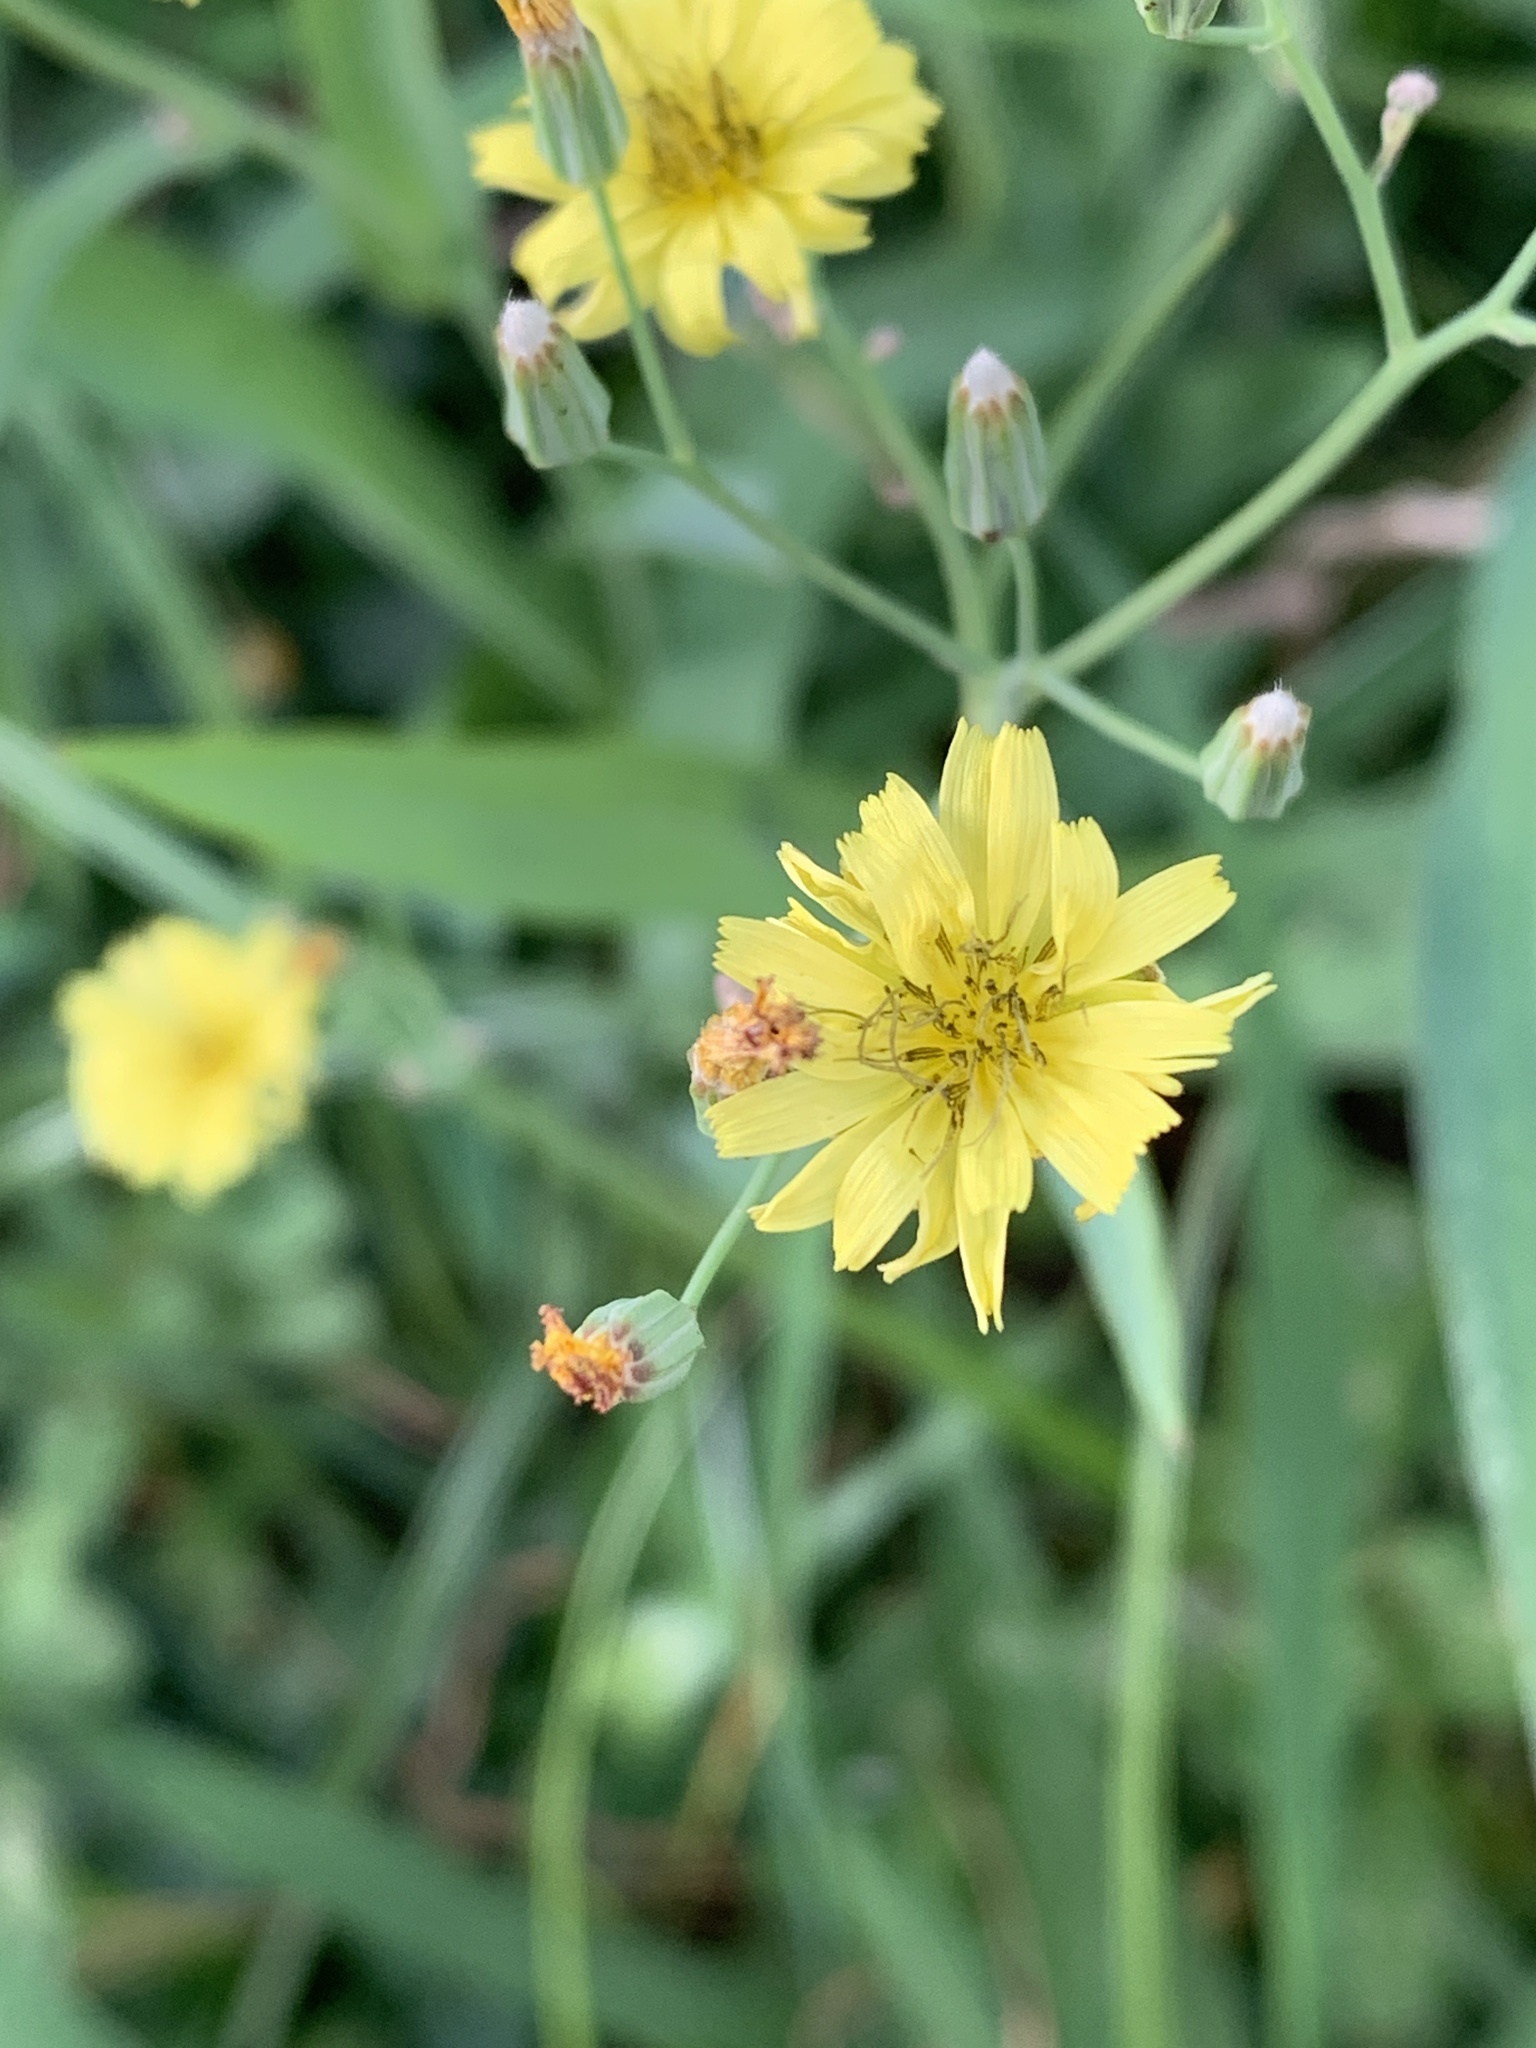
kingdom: Plantae
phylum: Tracheophyta
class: Magnoliopsida
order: Asterales
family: Asteraceae
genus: Ixeris
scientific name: Ixeris chinensis
